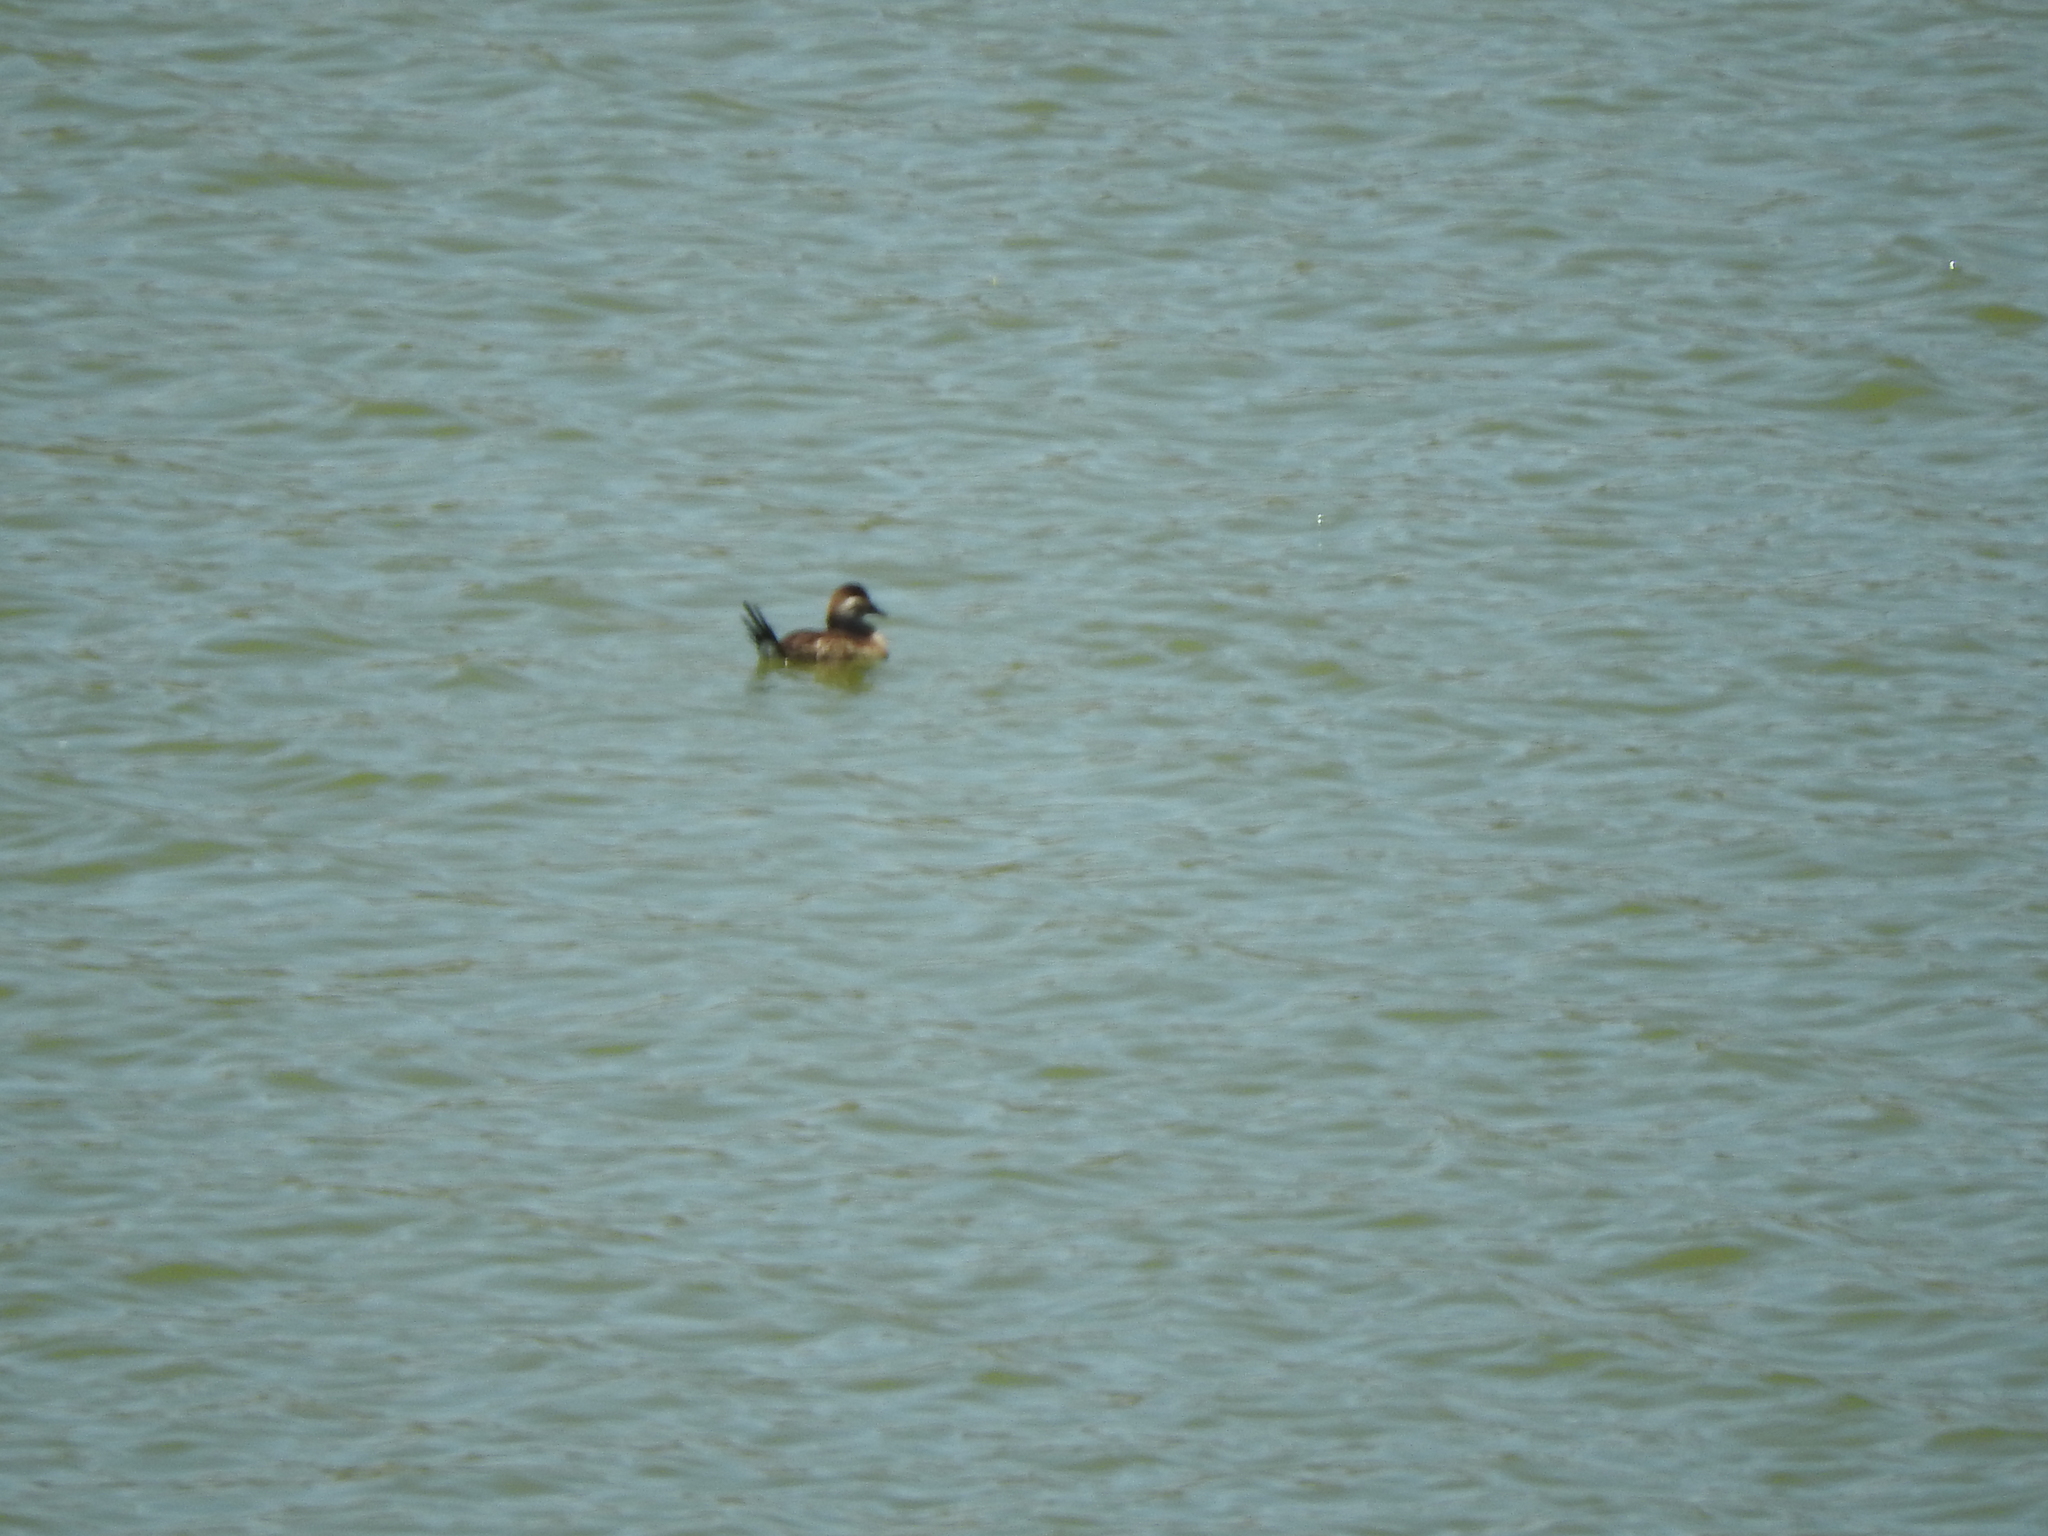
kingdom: Animalia
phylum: Chordata
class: Aves
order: Anseriformes
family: Anatidae
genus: Oxyura
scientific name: Oxyura jamaicensis
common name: Ruddy duck
